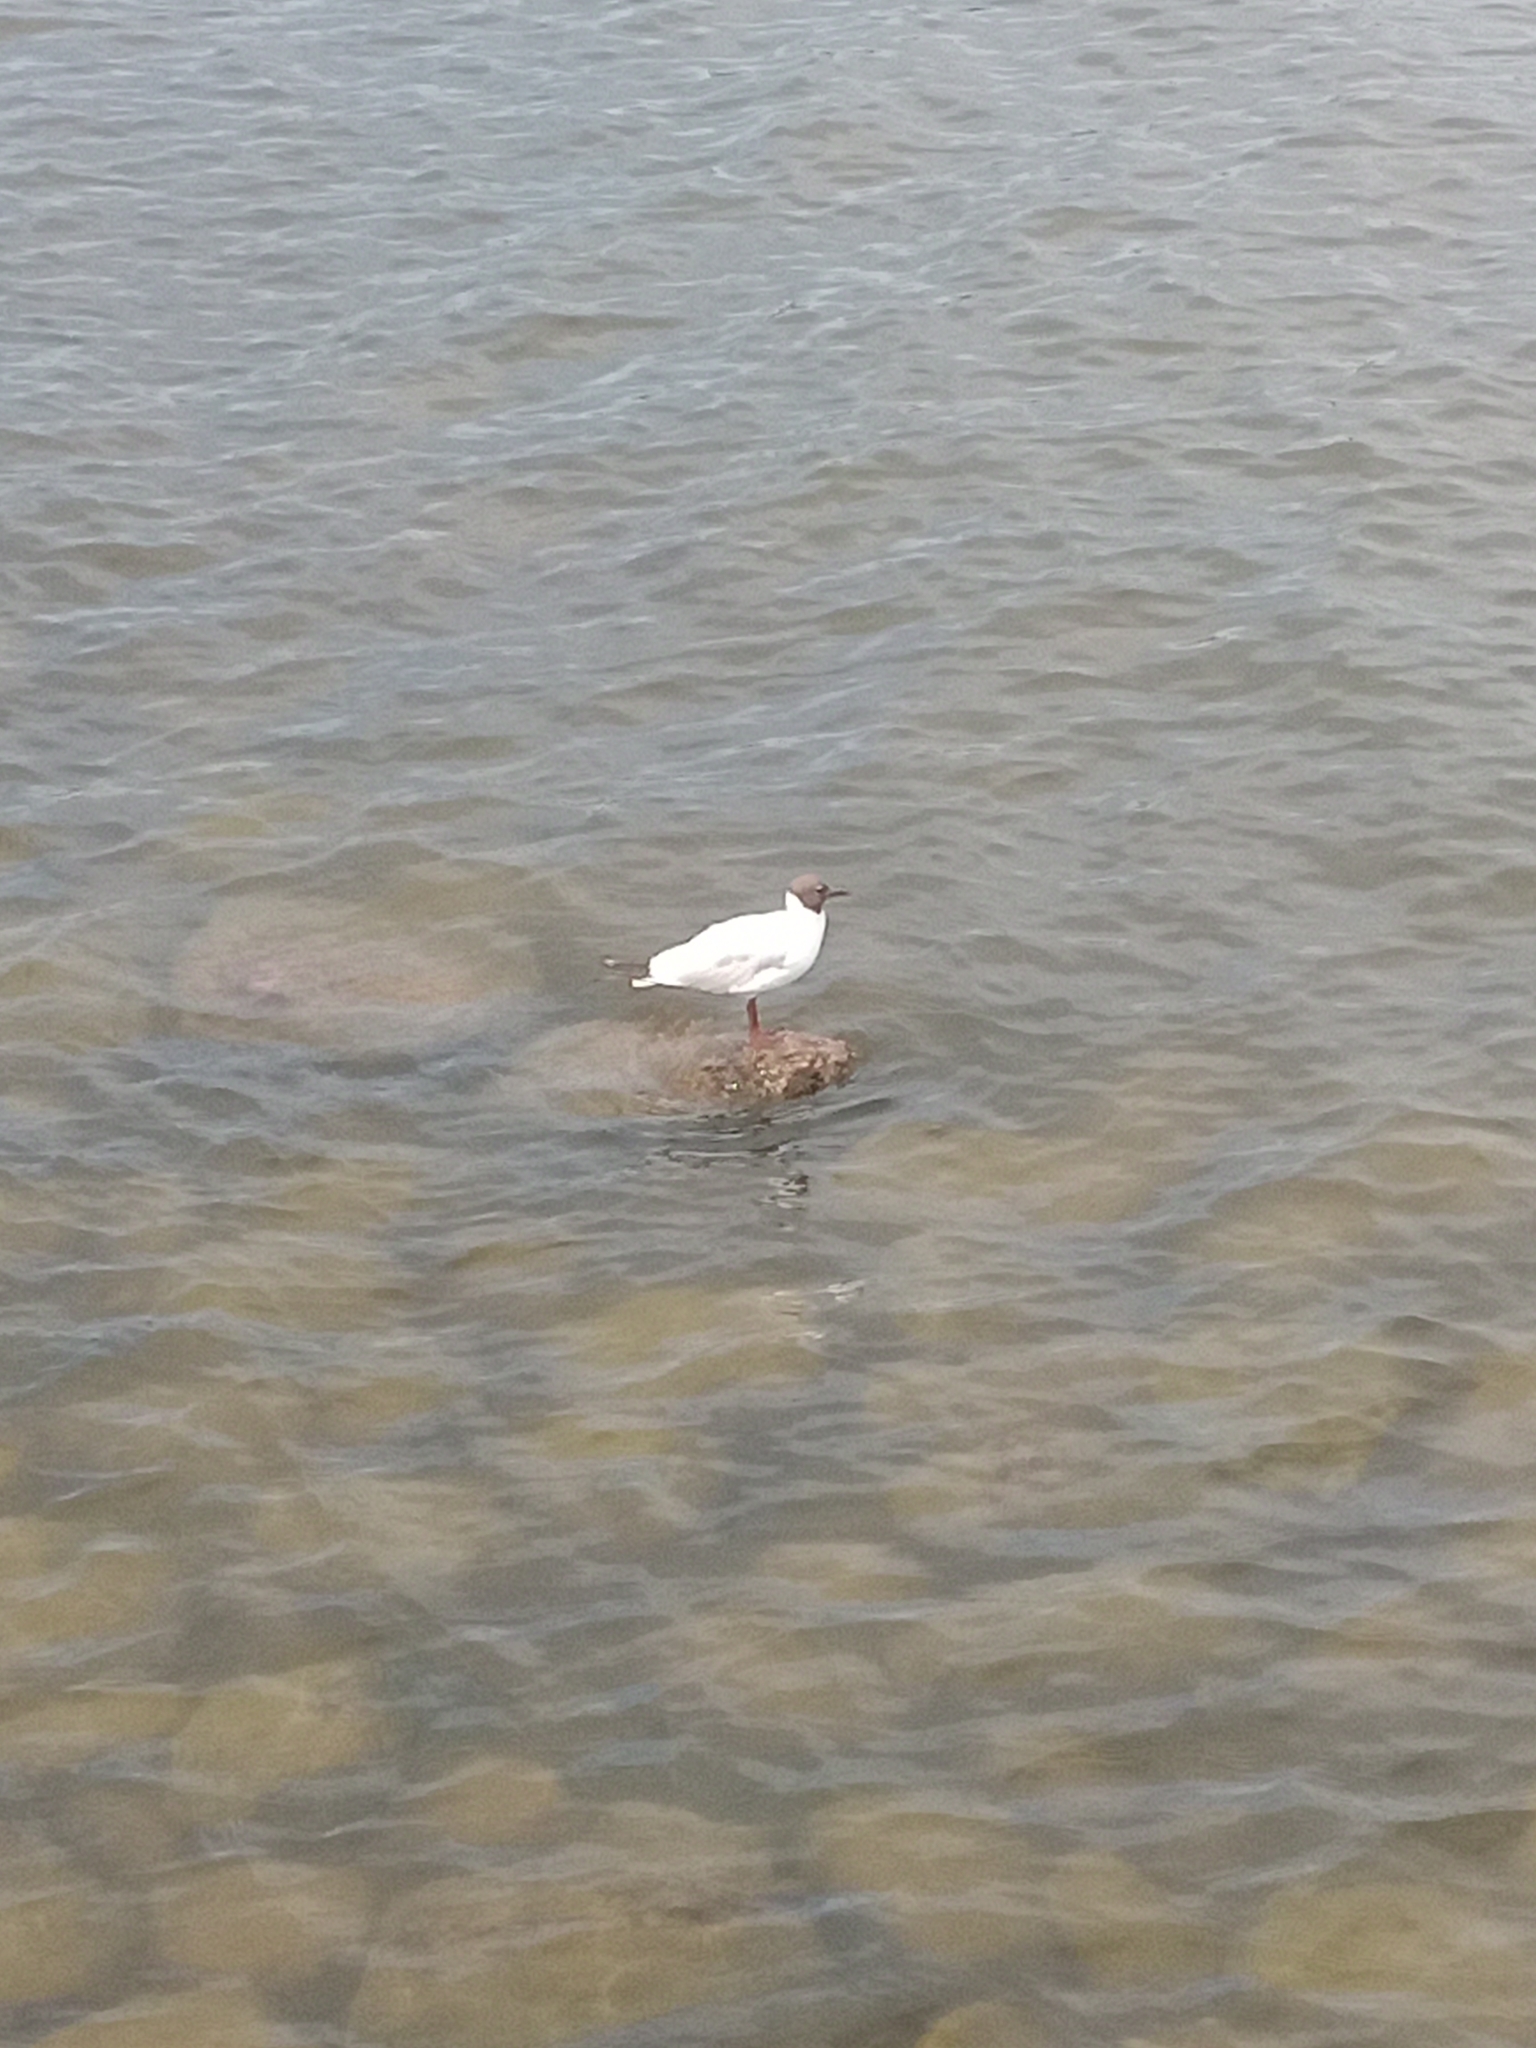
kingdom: Animalia
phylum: Chordata
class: Aves
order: Charadriiformes
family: Laridae
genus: Chroicocephalus
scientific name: Chroicocephalus ridibundus
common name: Black-headed gull
